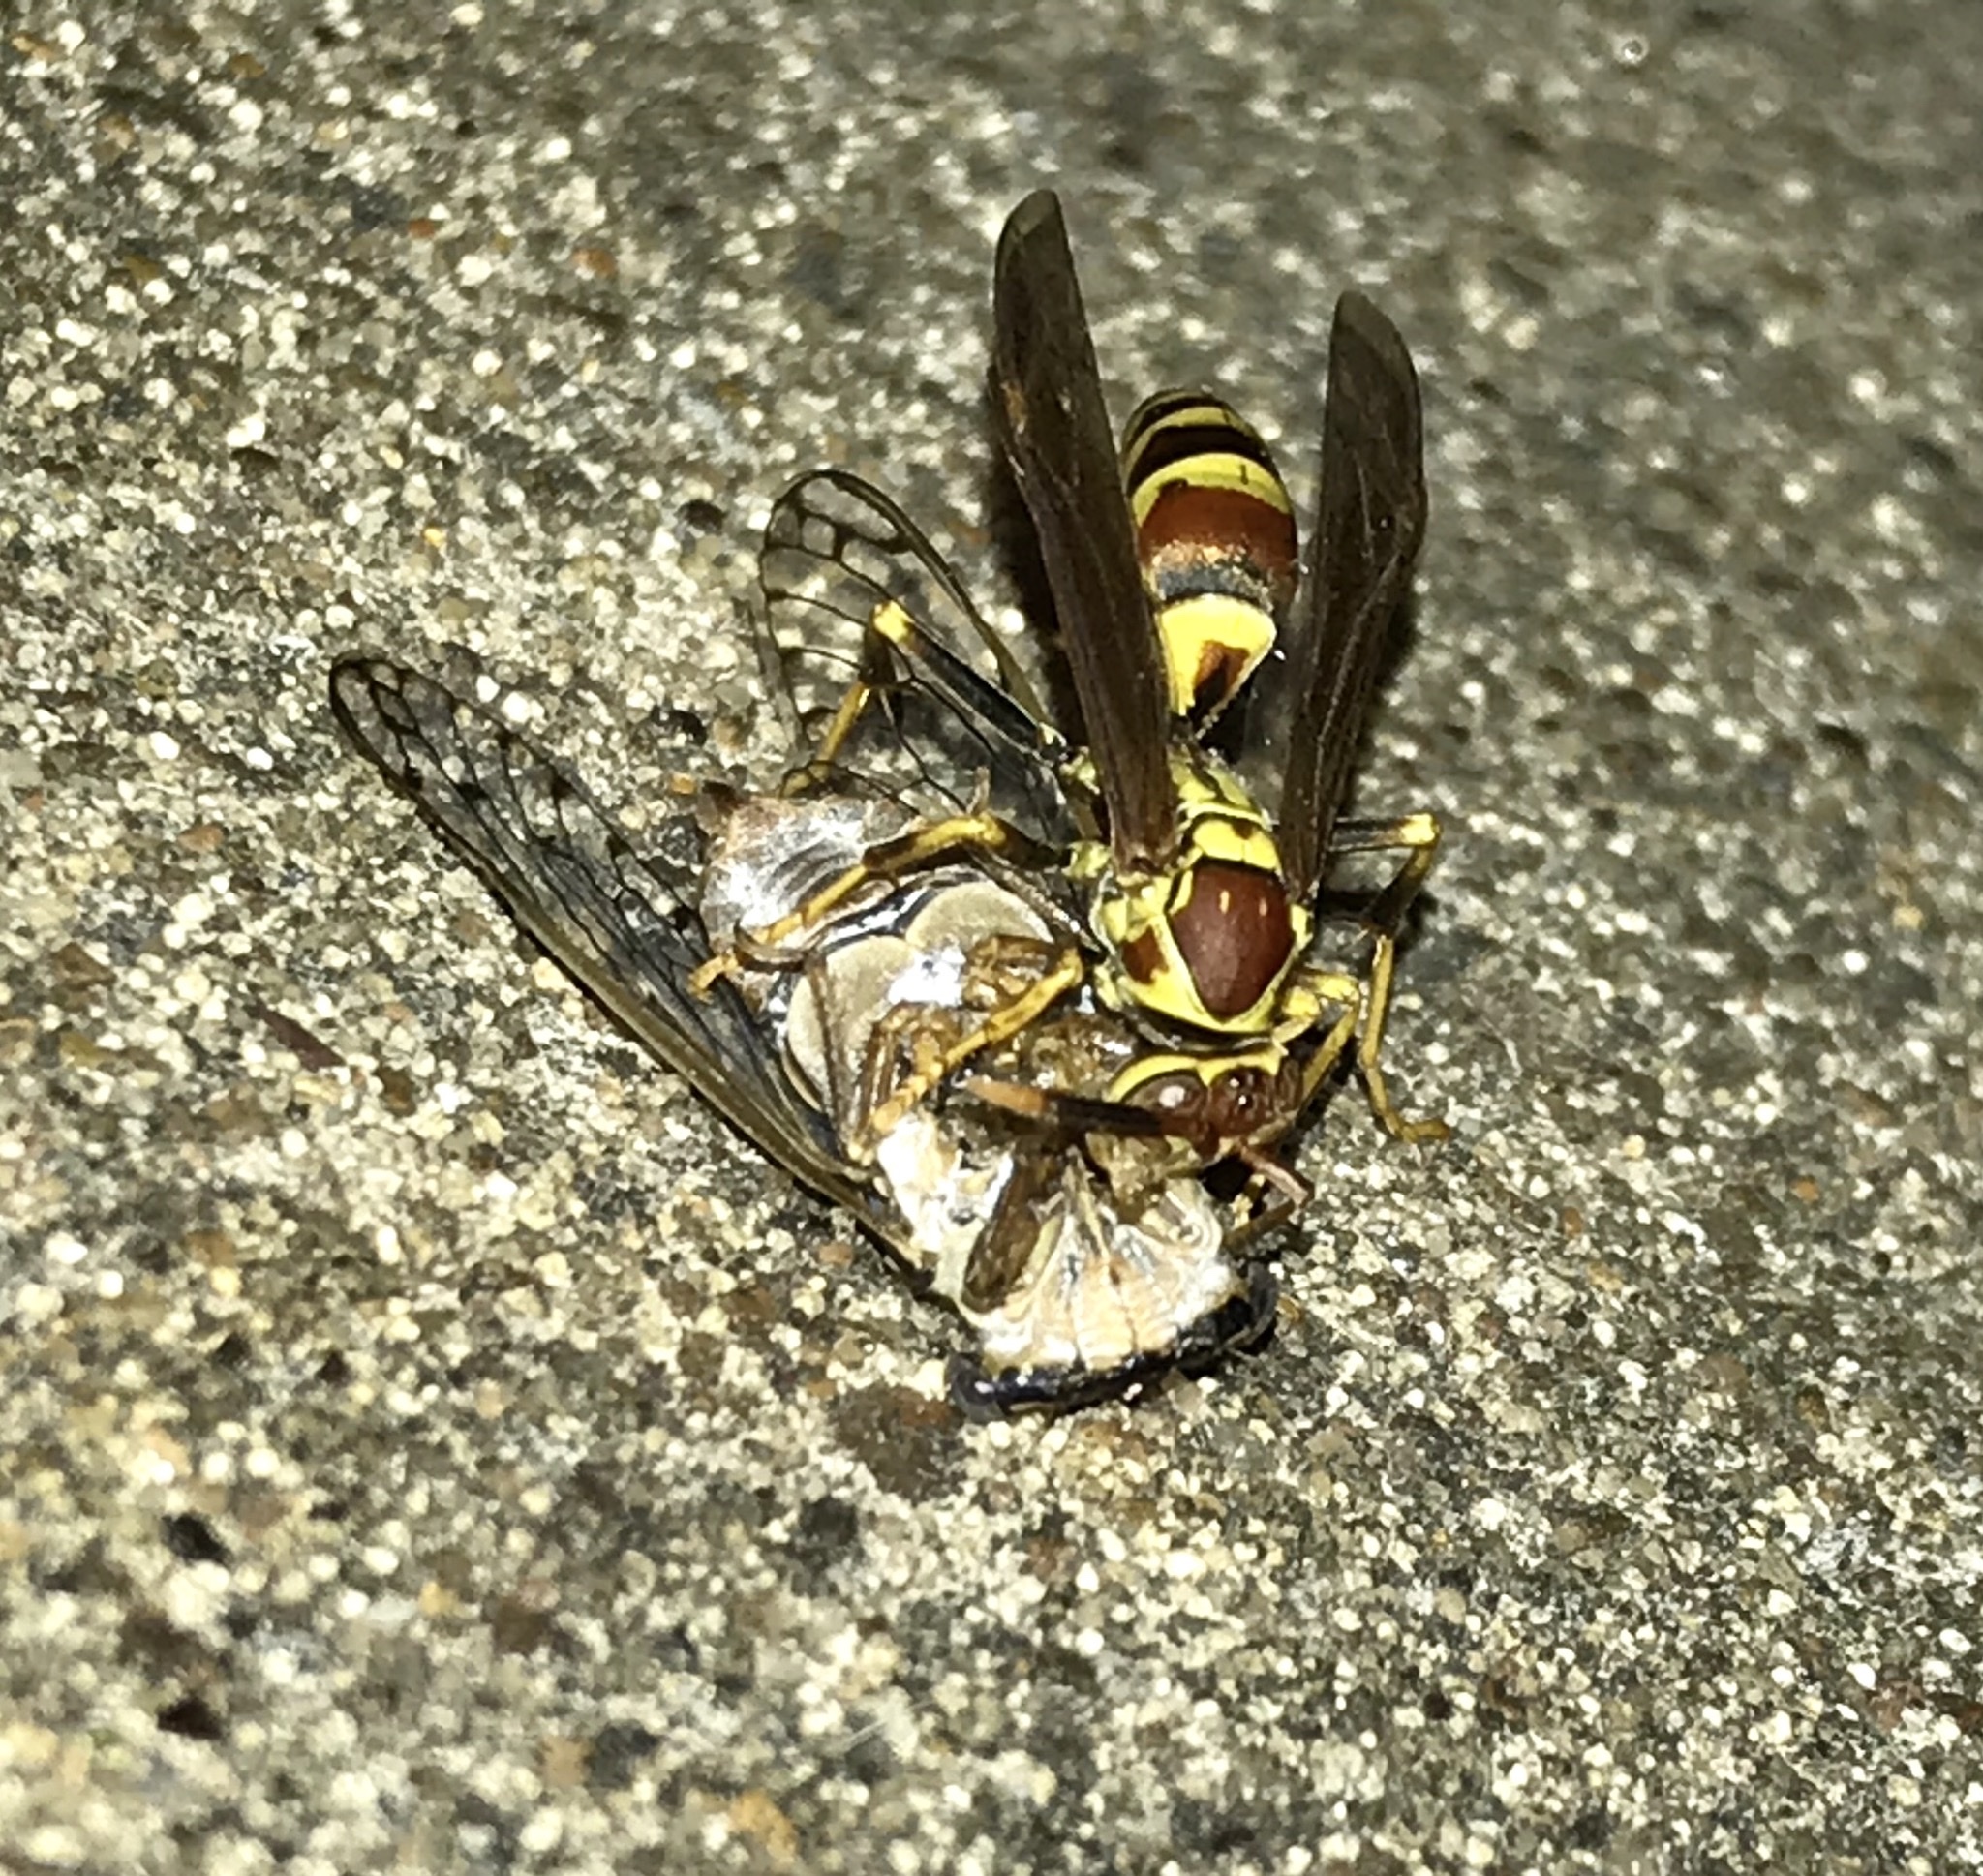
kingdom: Animalia
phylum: Arthropoda
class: Insecta
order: Hymenoptera
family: Eumenidae
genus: Polistes
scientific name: Polistes exclamans
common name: Paper wasp
